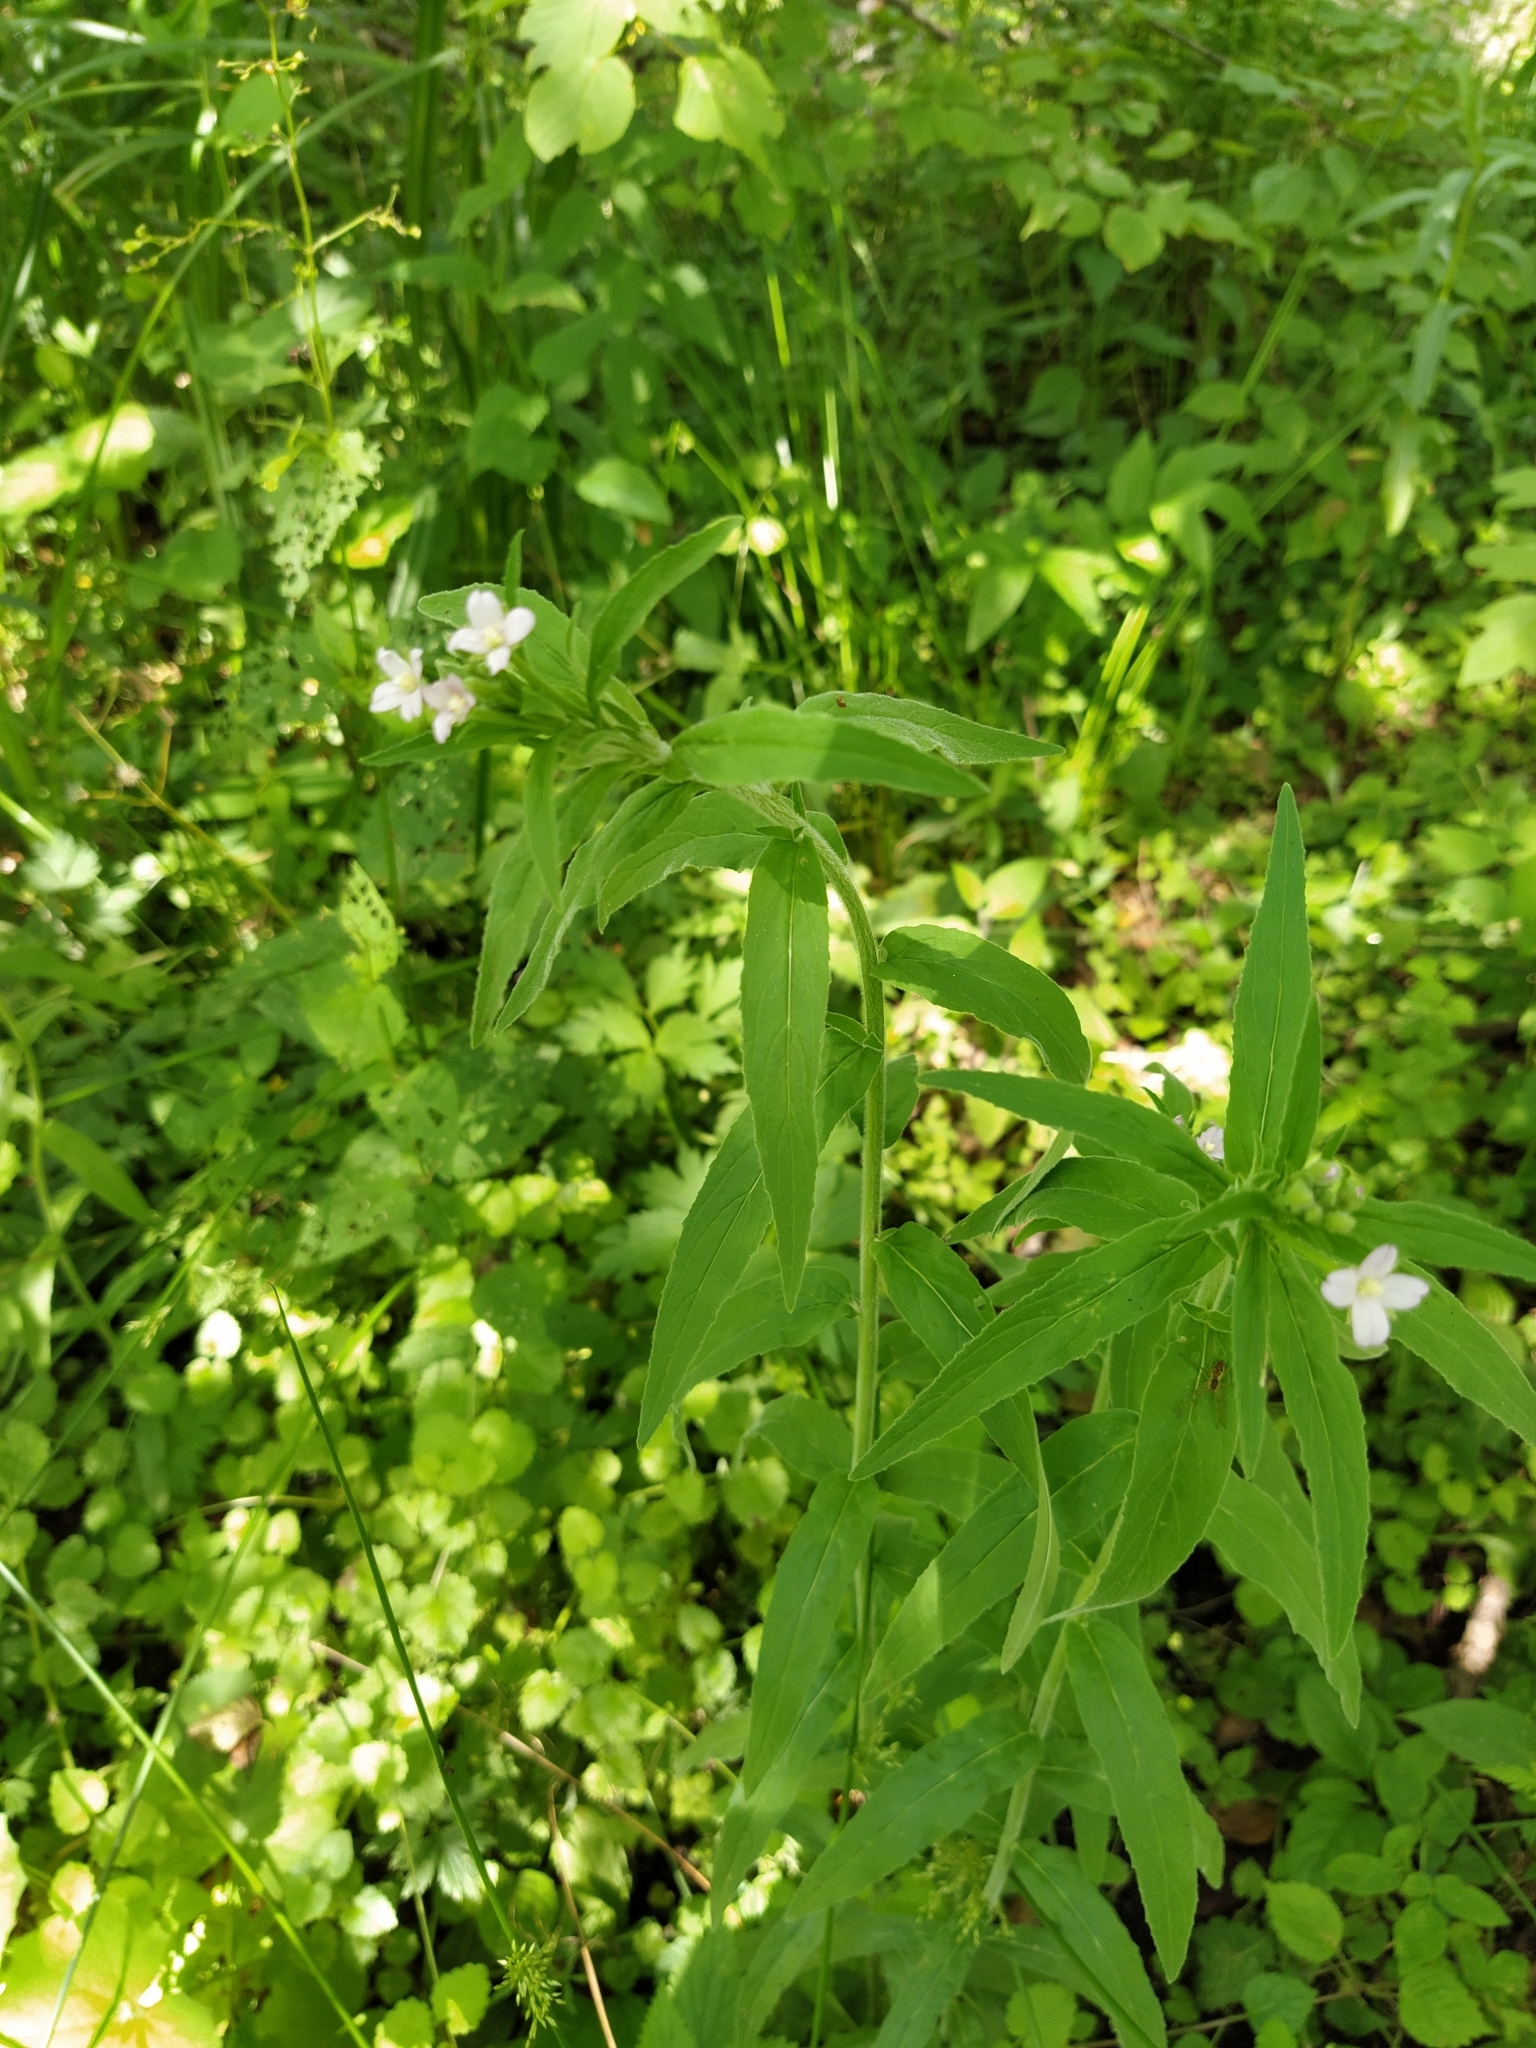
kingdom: Plantae
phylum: Tracheophyta
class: Magnoliopsida
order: Myrtales
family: Onagraceae
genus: Epilobium
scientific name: Epilobium parviflorum
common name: Hoary willowherb
